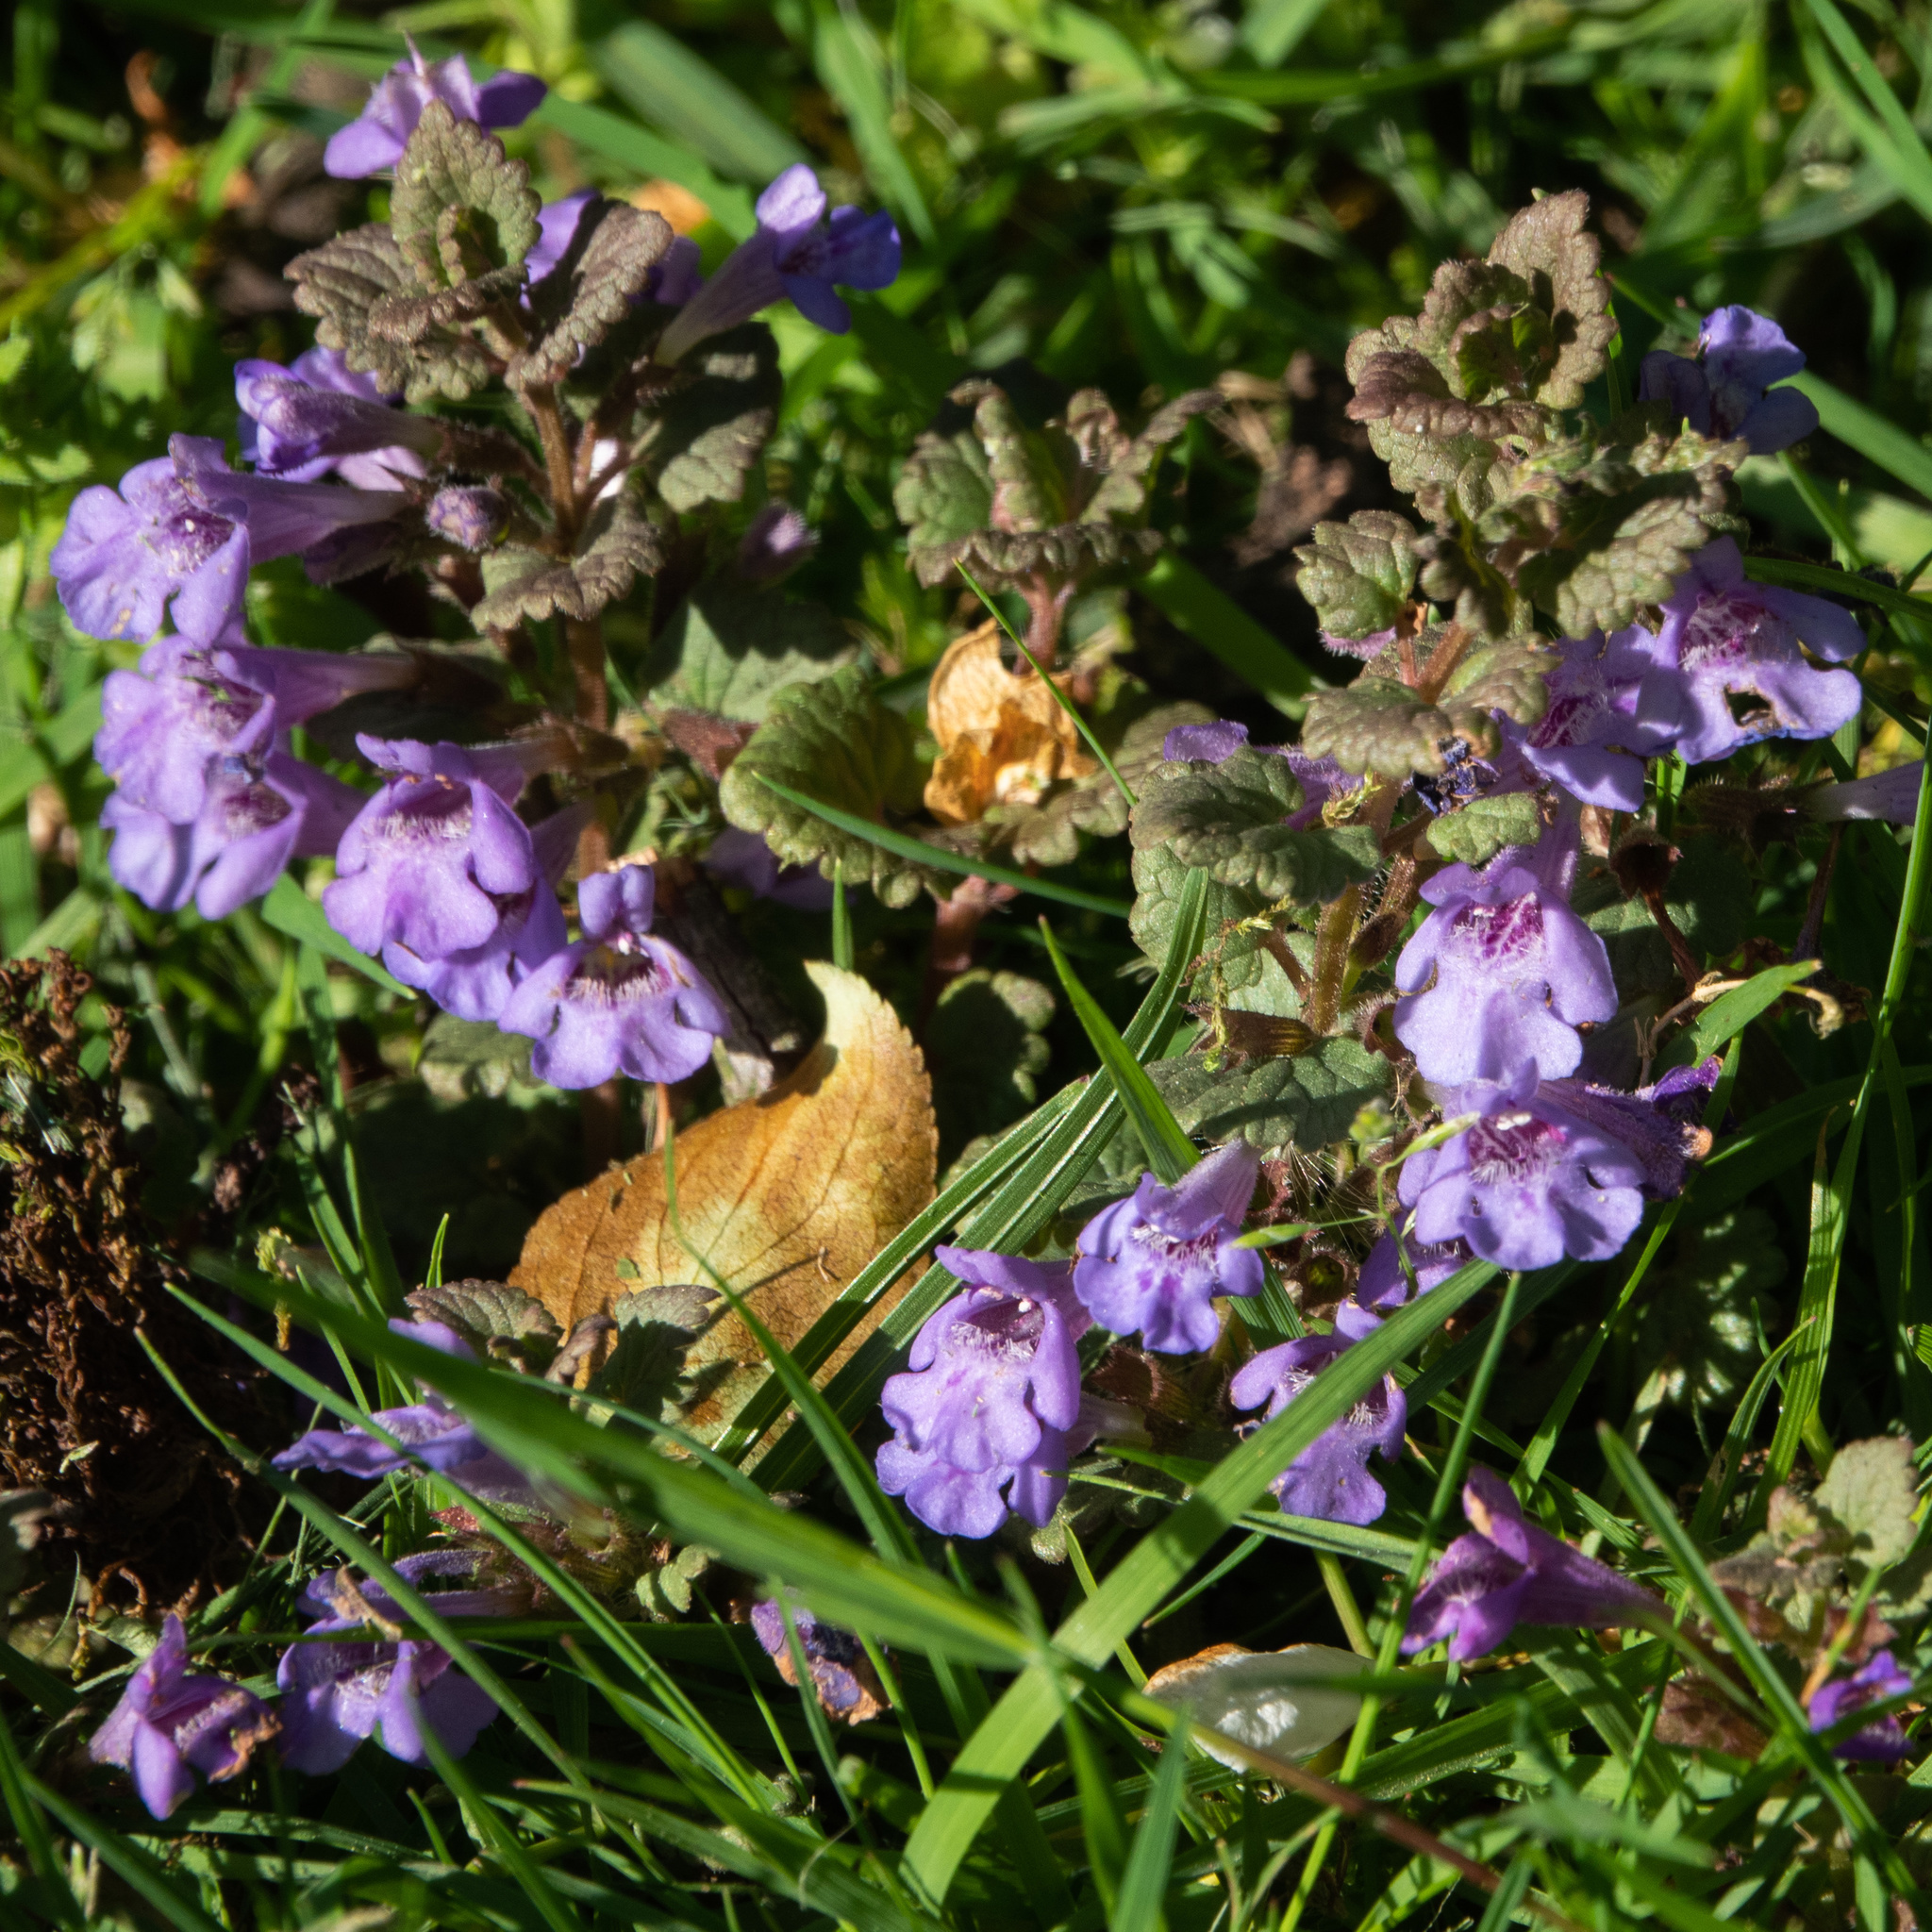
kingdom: Plantae
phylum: Tracheophyta
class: Magnoliopsida
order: Lamiales
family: Lamiaceae
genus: Glechoma
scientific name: Glechoma hederacea
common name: Ground ivy
